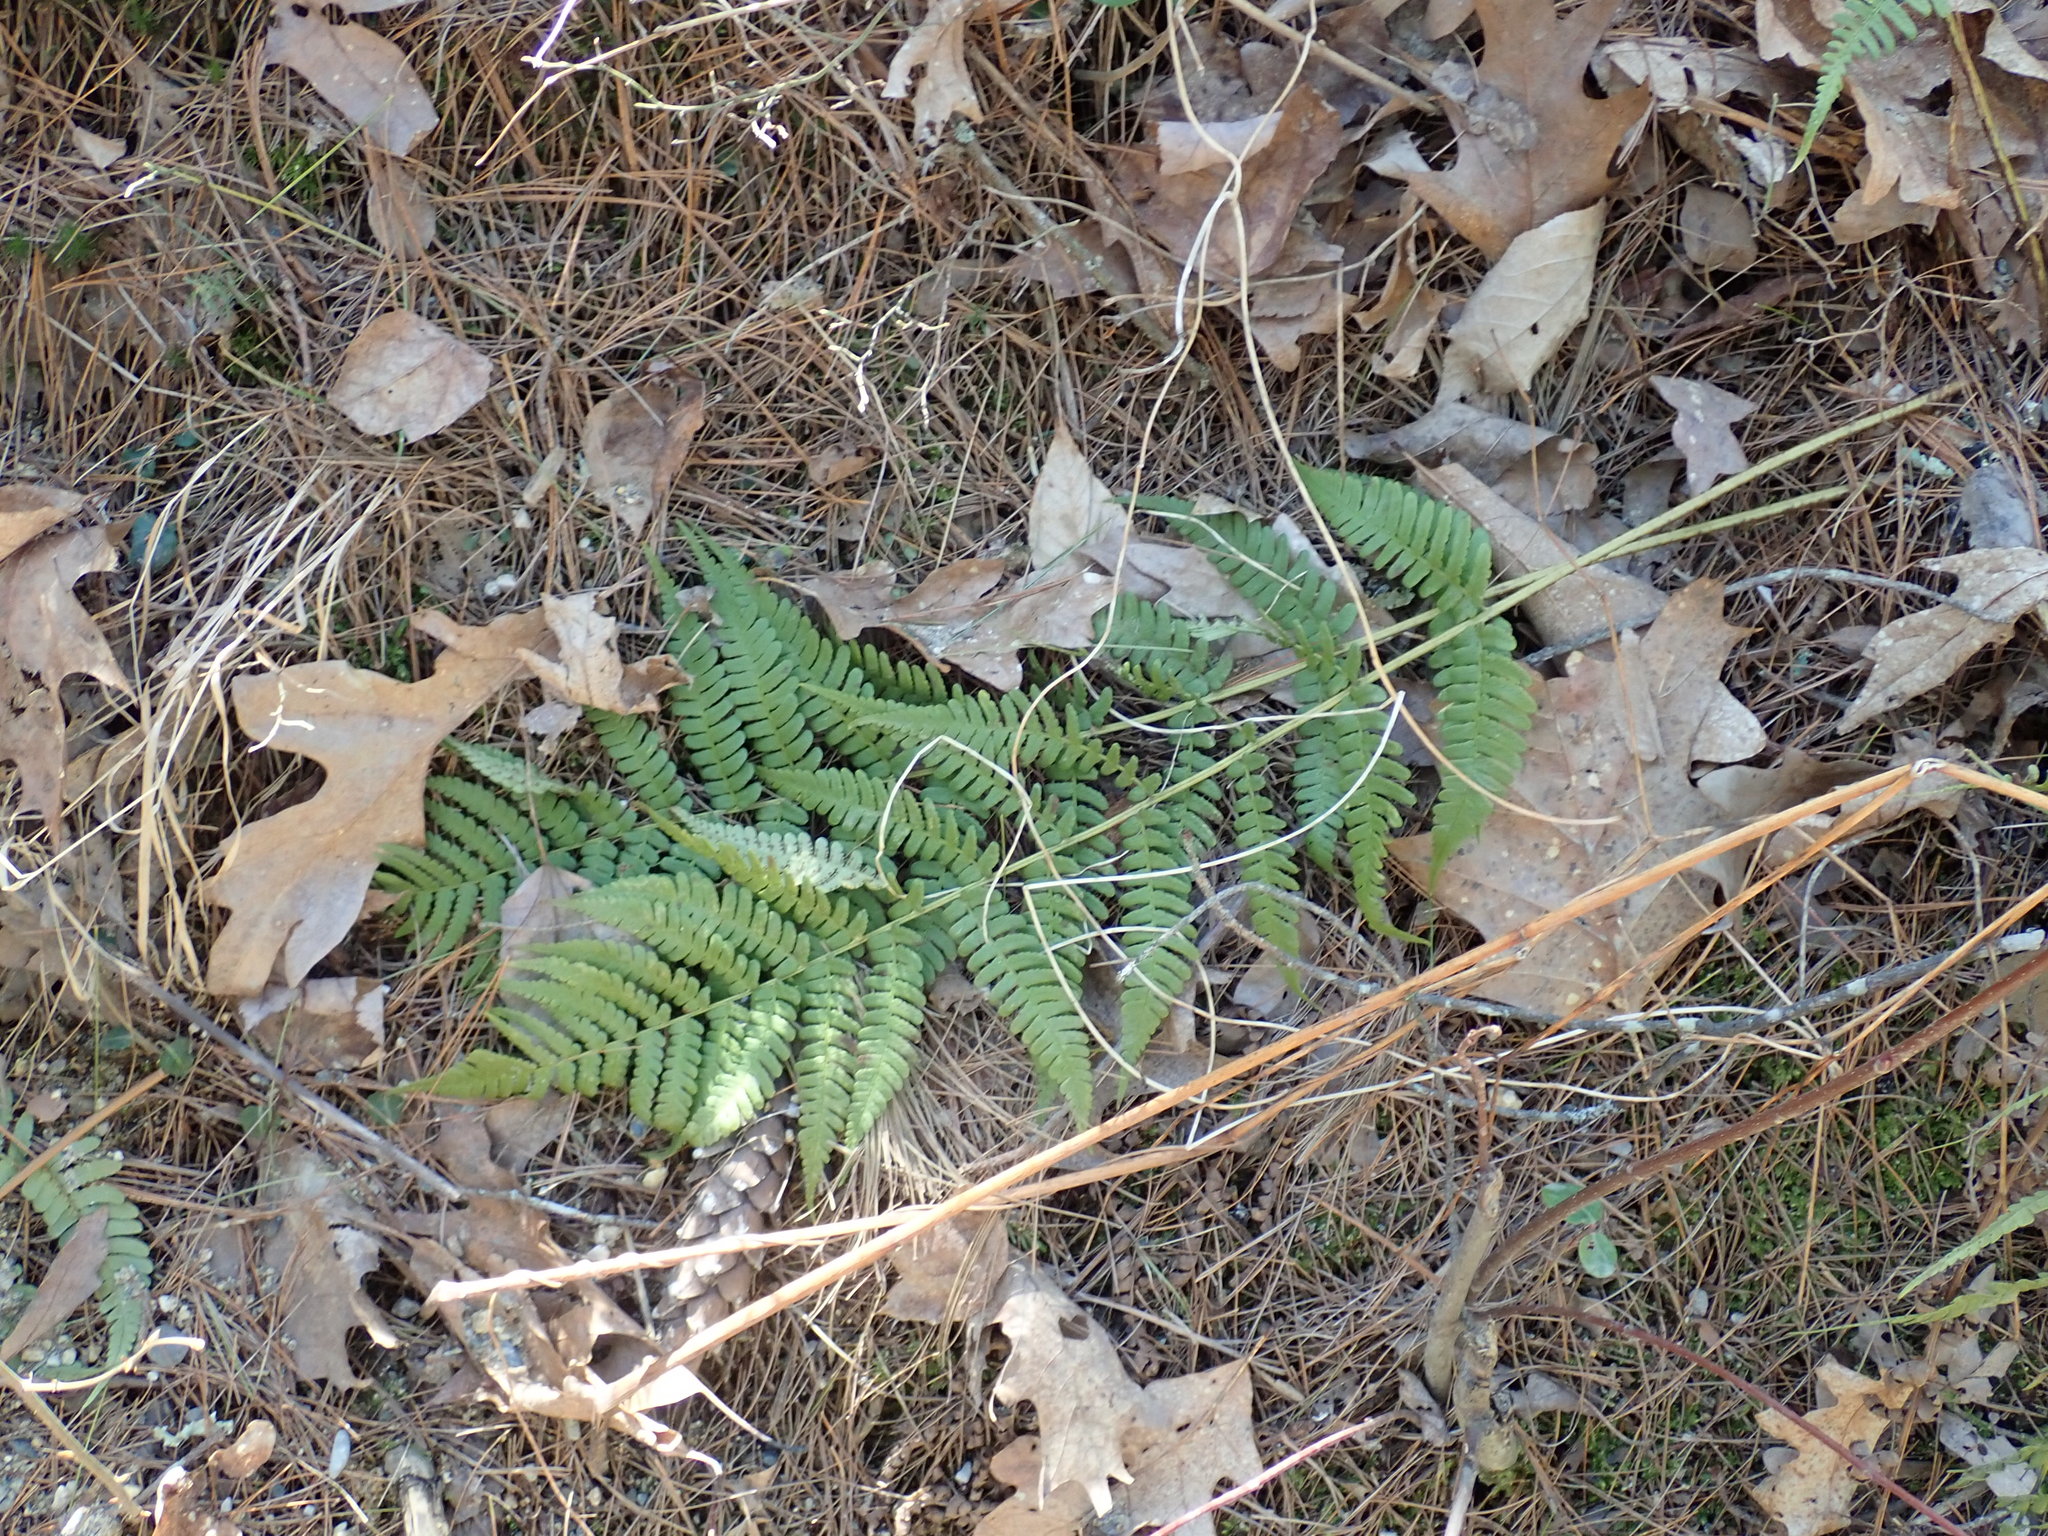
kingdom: Plantae
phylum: Tracheophyta
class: Polypodiopsida
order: Polypodiales
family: Dryopteridaceae
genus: Dryopteris
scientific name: Dryopteris marginalis
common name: Marginal wood fern
